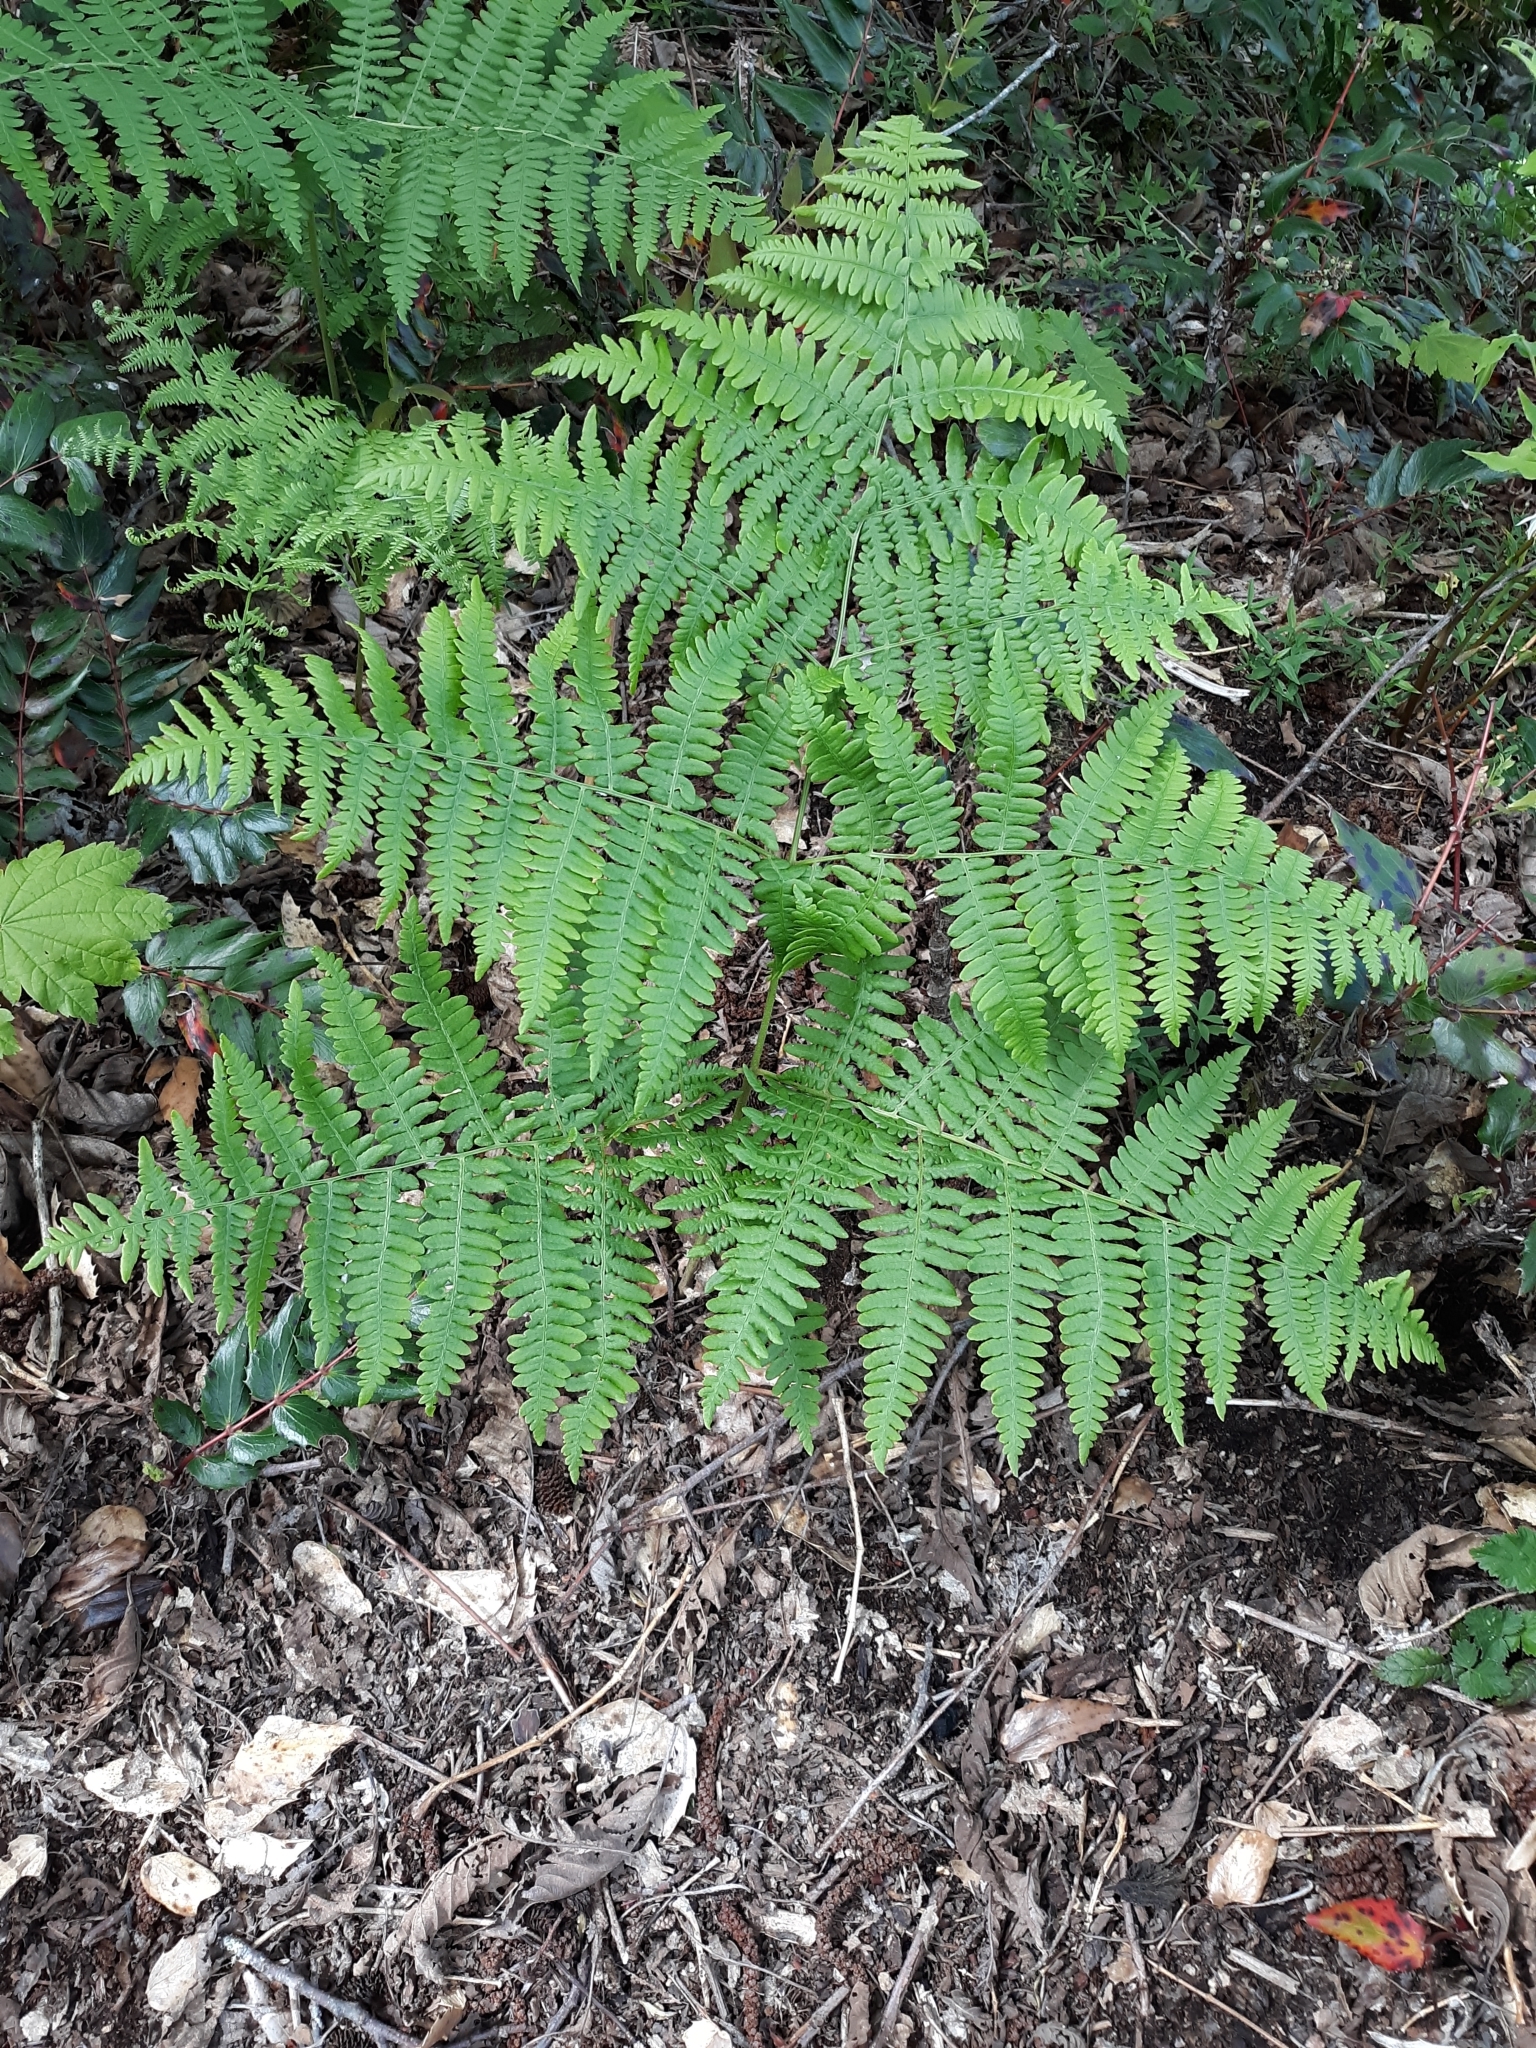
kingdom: Plantae
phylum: Tracheophyta
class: Polypodiopsida
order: Polypodiales
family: Dennstaedtiaceae
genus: Pteridium
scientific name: Pteridium aquilinum
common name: Bracken
